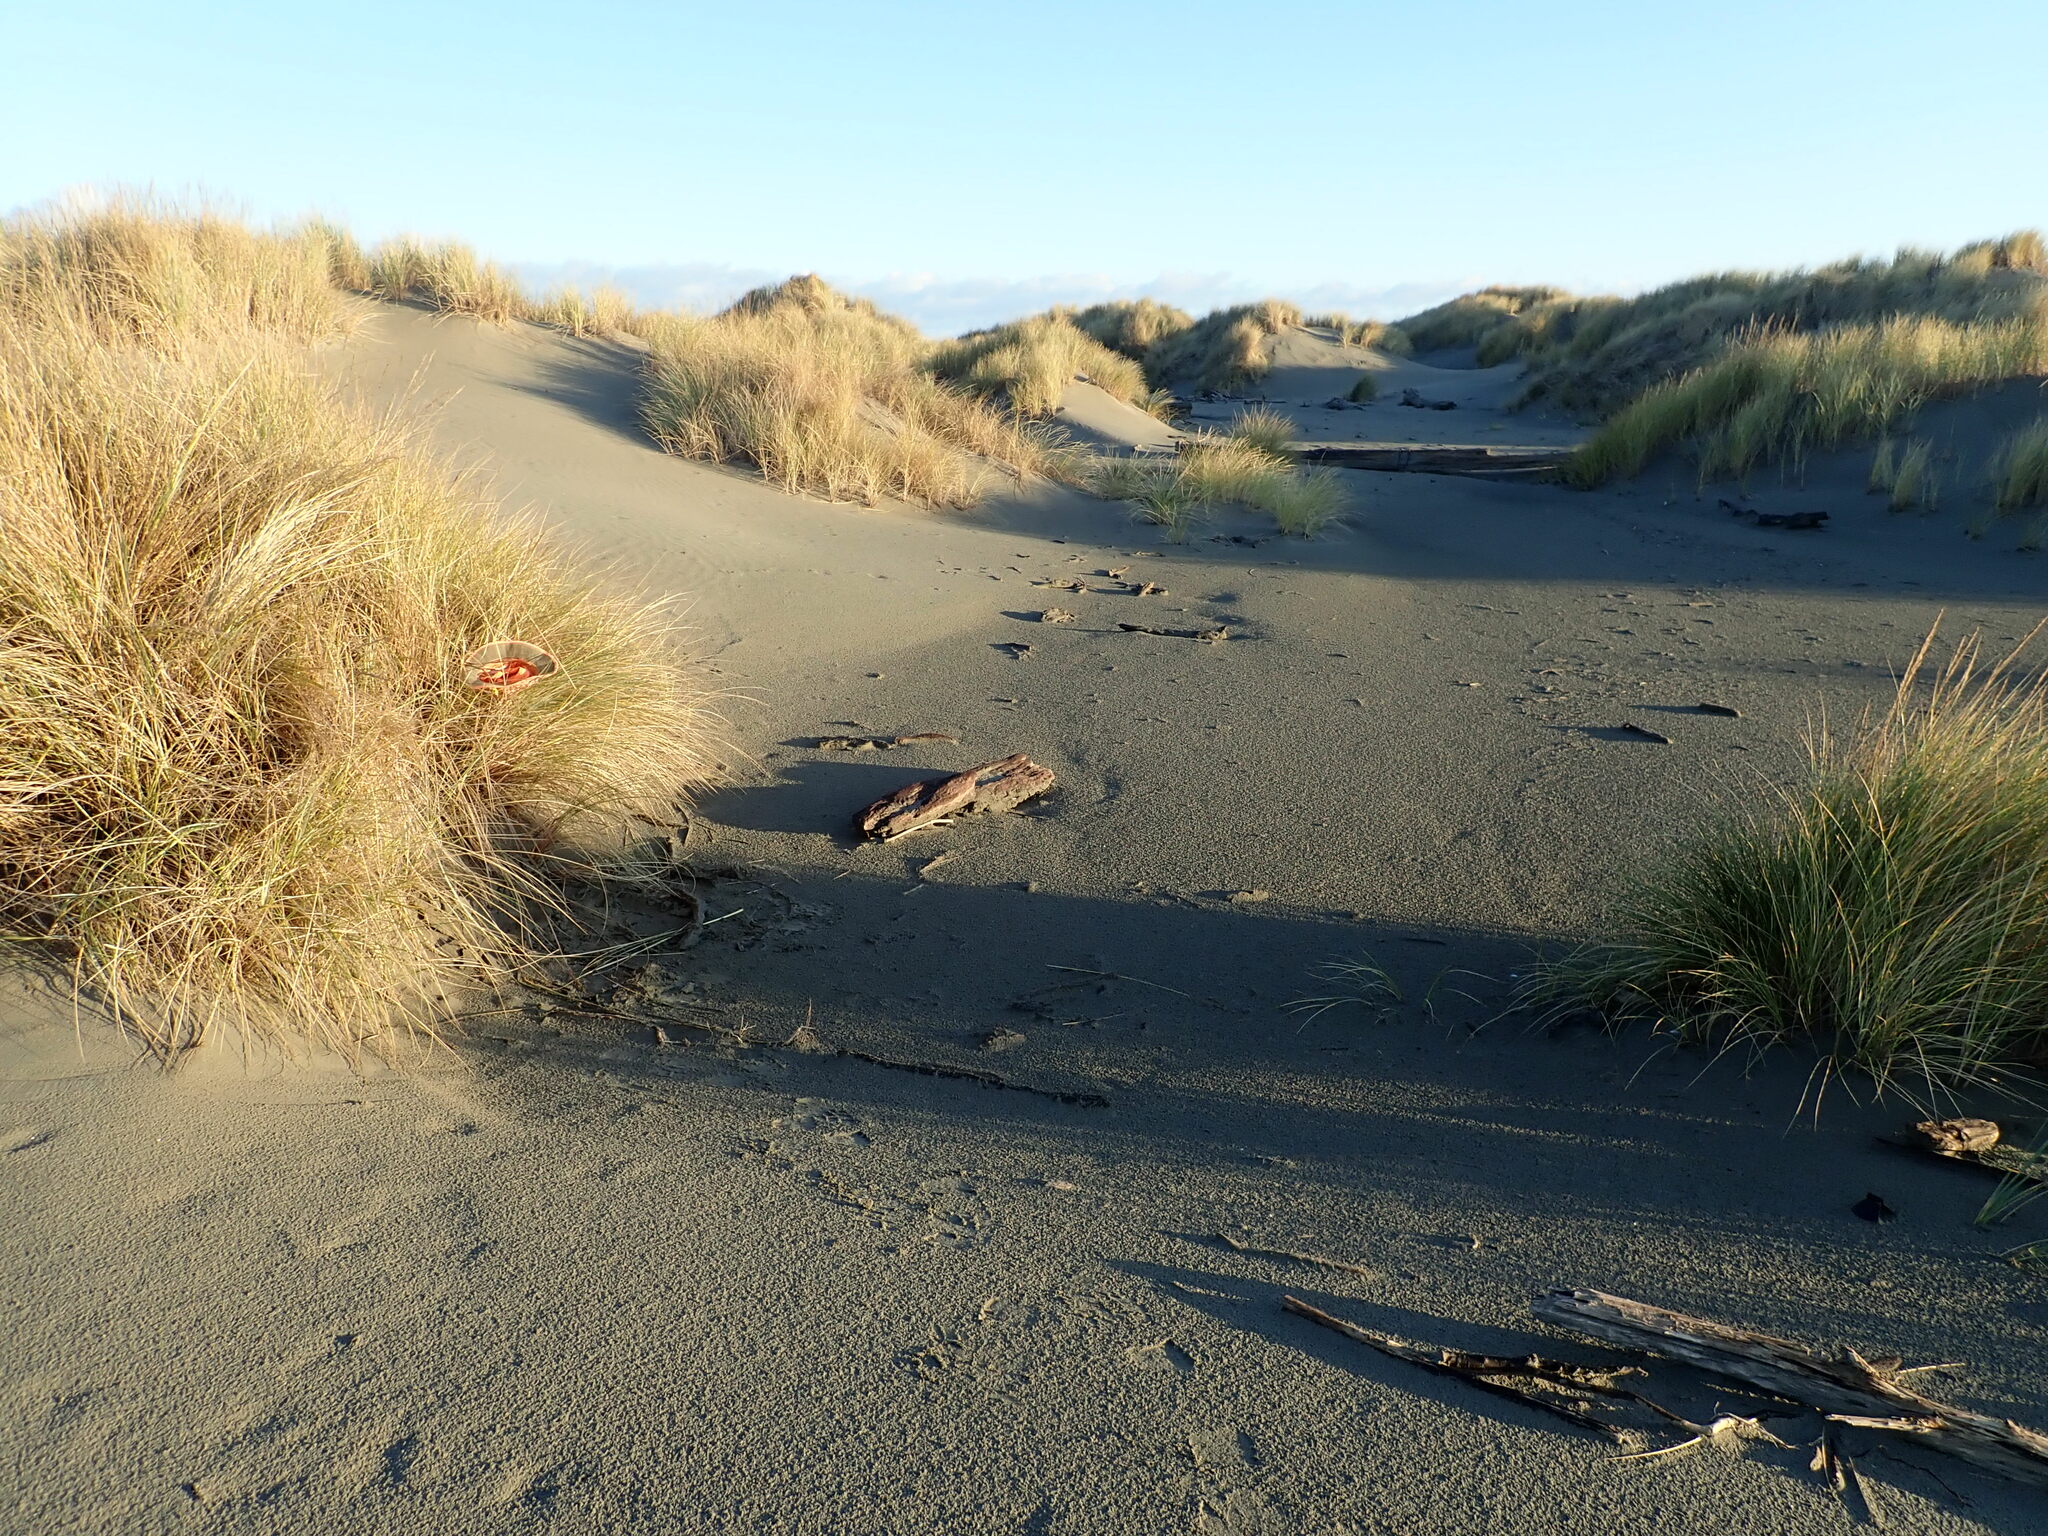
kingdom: Plantae
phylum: Tracheophyta
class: Magnoliopsida
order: Asterales
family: Asteraceae
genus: Senecio
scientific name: Senecio skirrhodon
